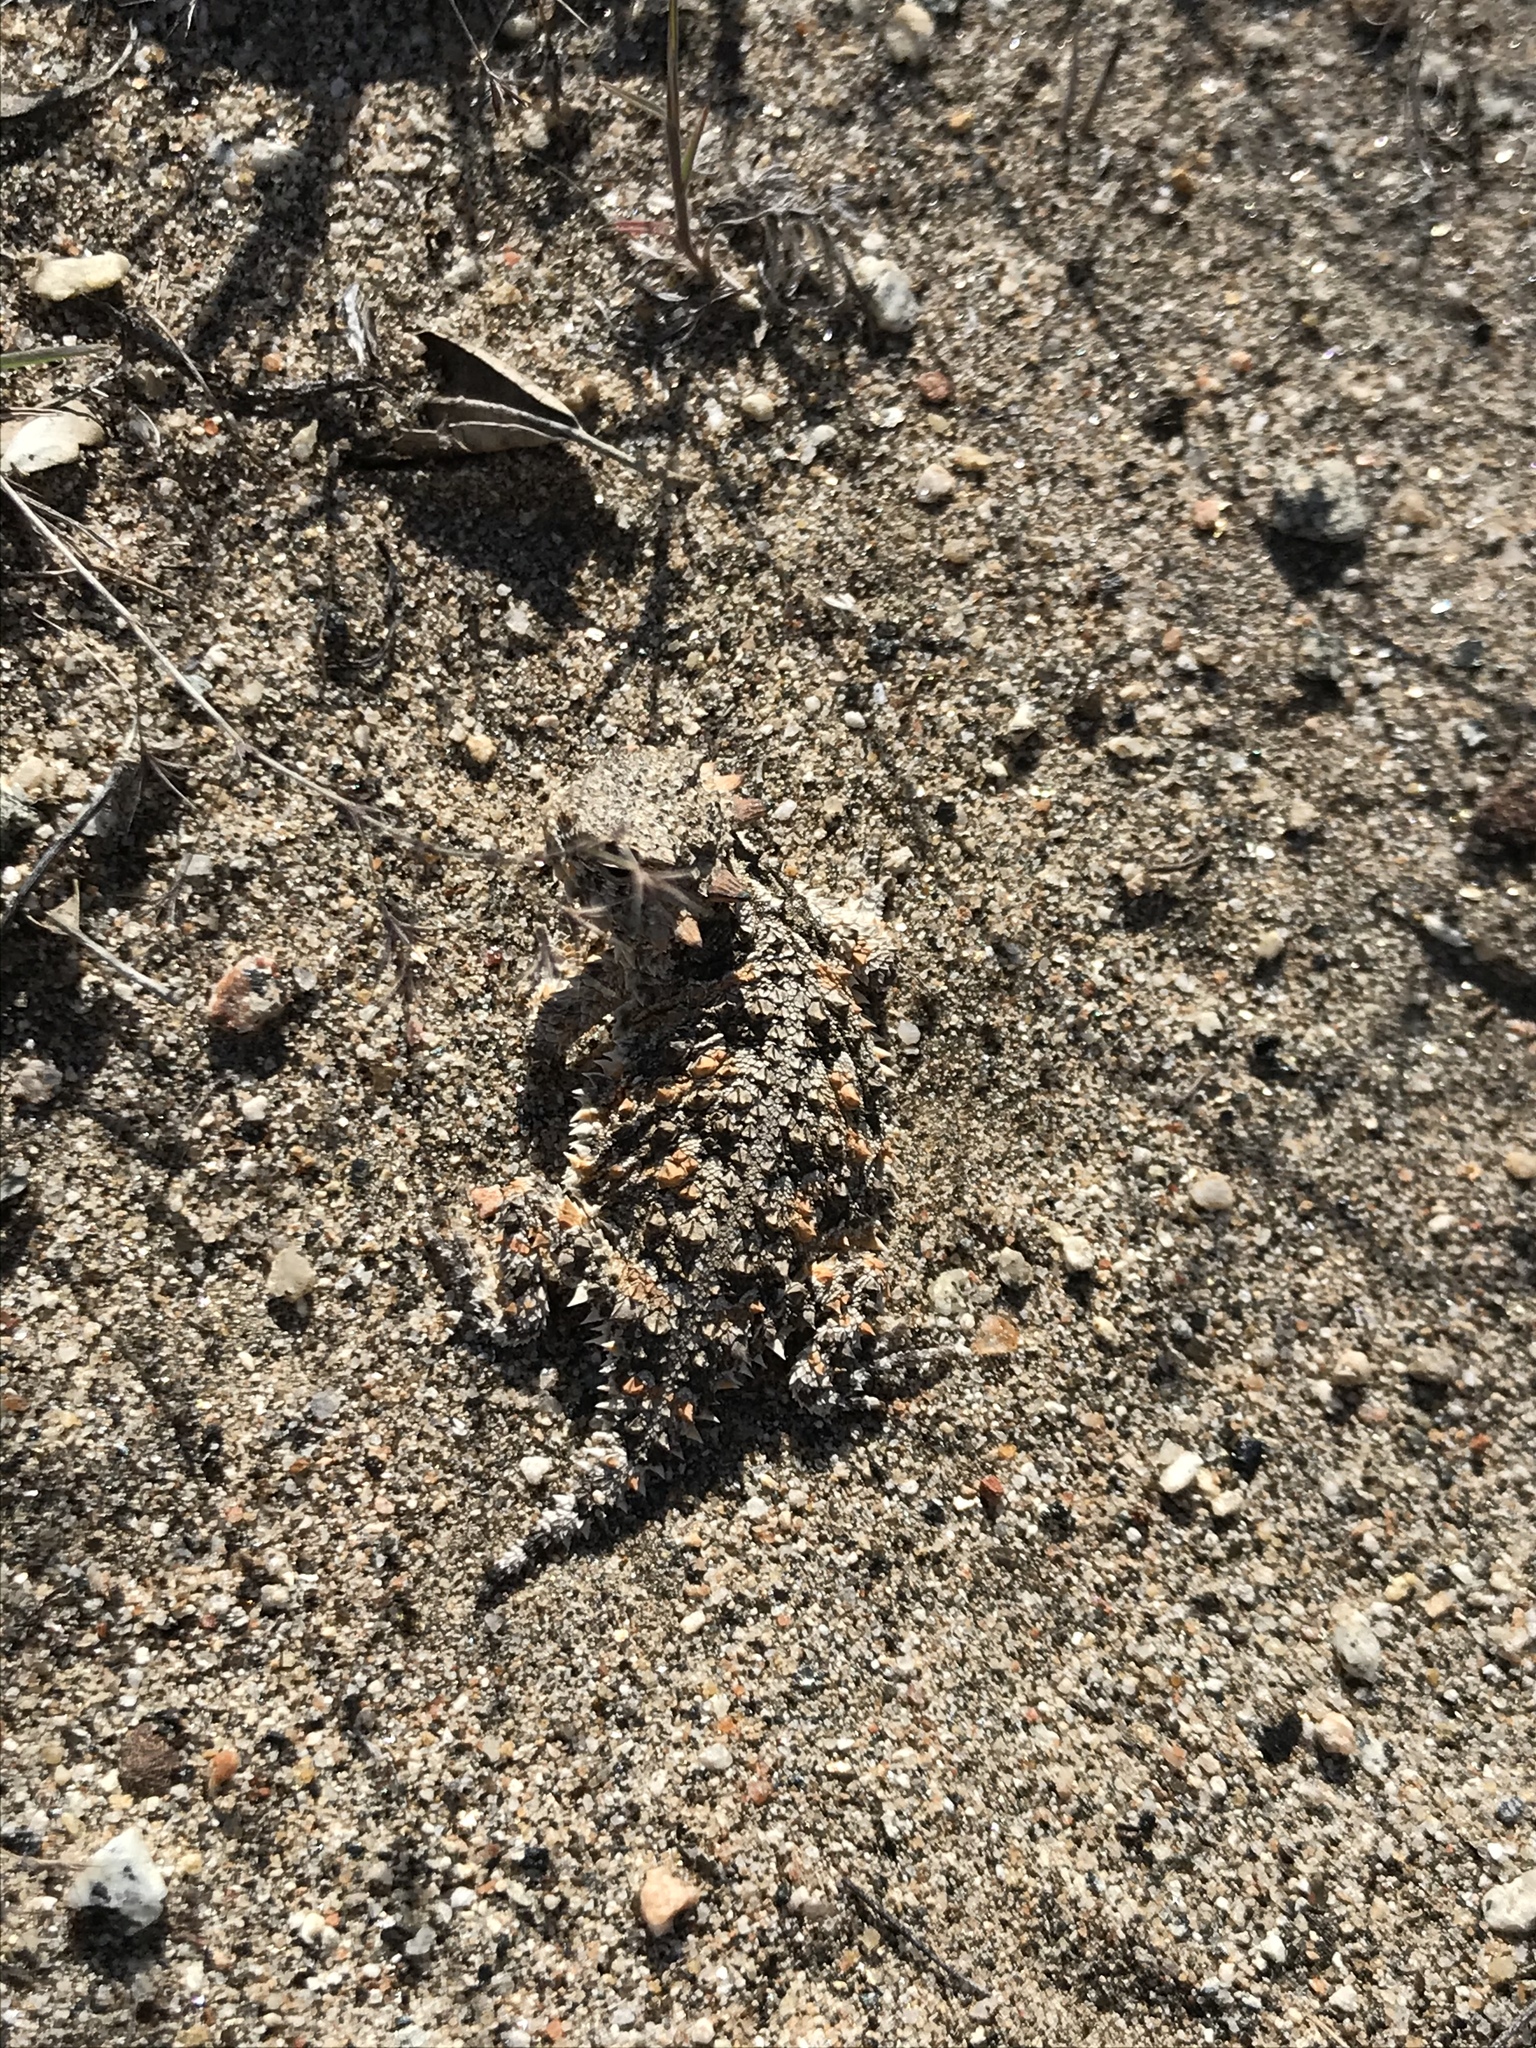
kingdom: Animalia
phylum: Chordata
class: Squamata
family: Phrynosomatidae
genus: Phrynosoma
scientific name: Phrynosoma blainvillii
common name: San diego horned lizard
